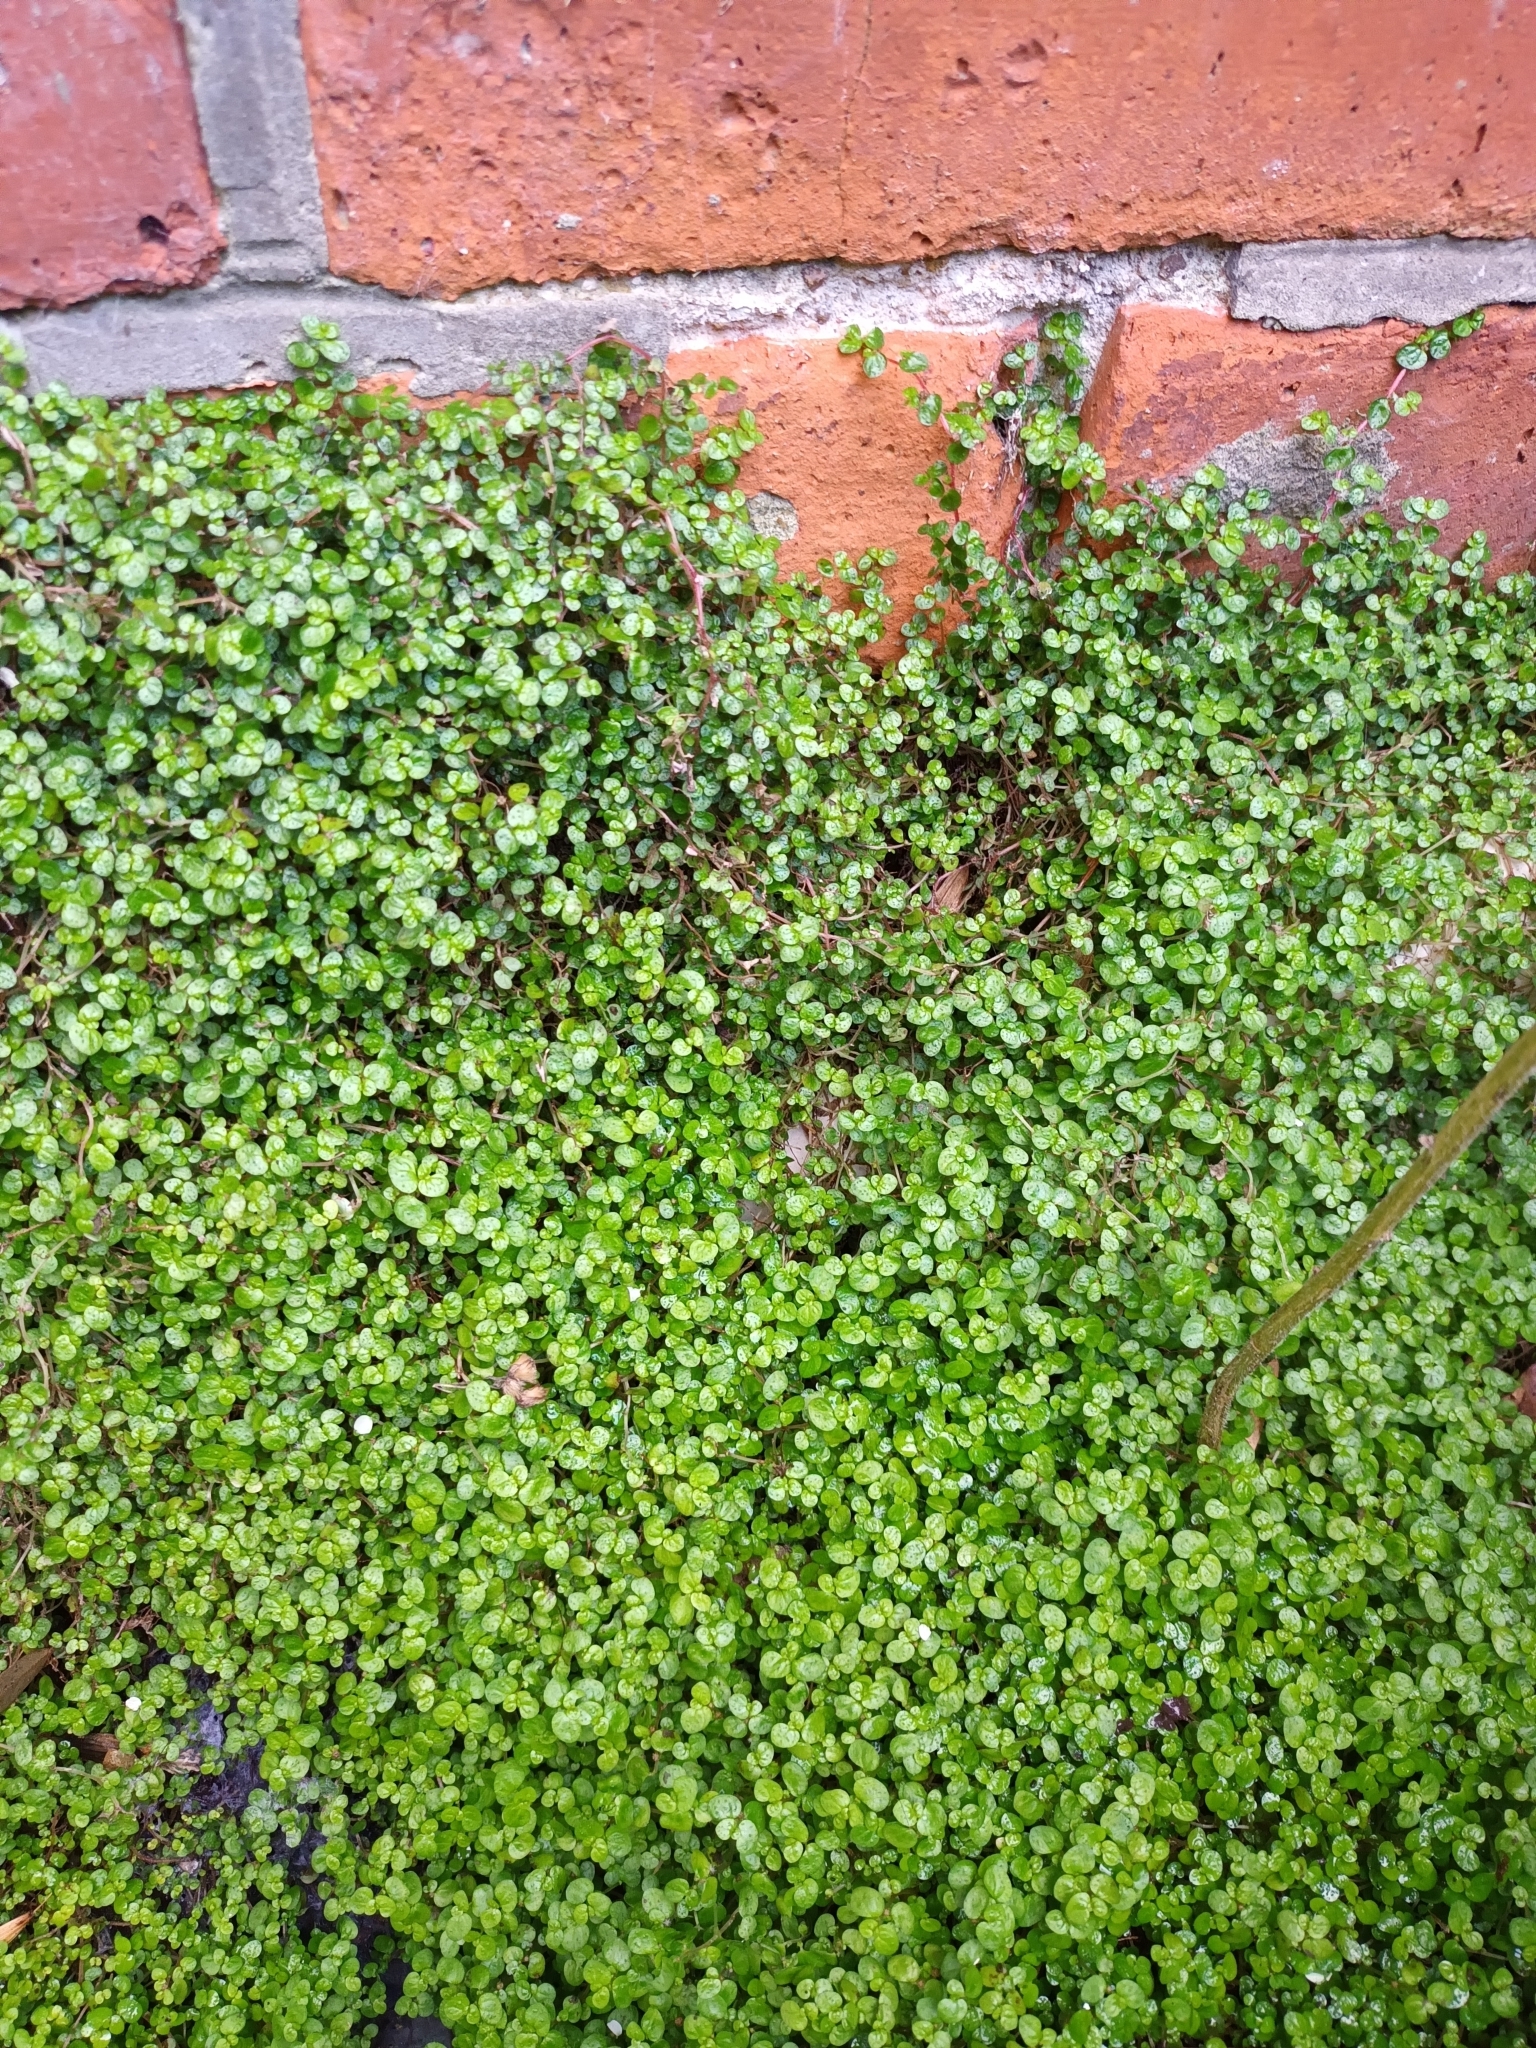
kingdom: Plantae
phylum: Tracheophyta
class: Magnoliopsida
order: Rosales
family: Urticaceae
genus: Soleirolia
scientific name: Soleirolia soleirolii
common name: Mind-your-own-business
